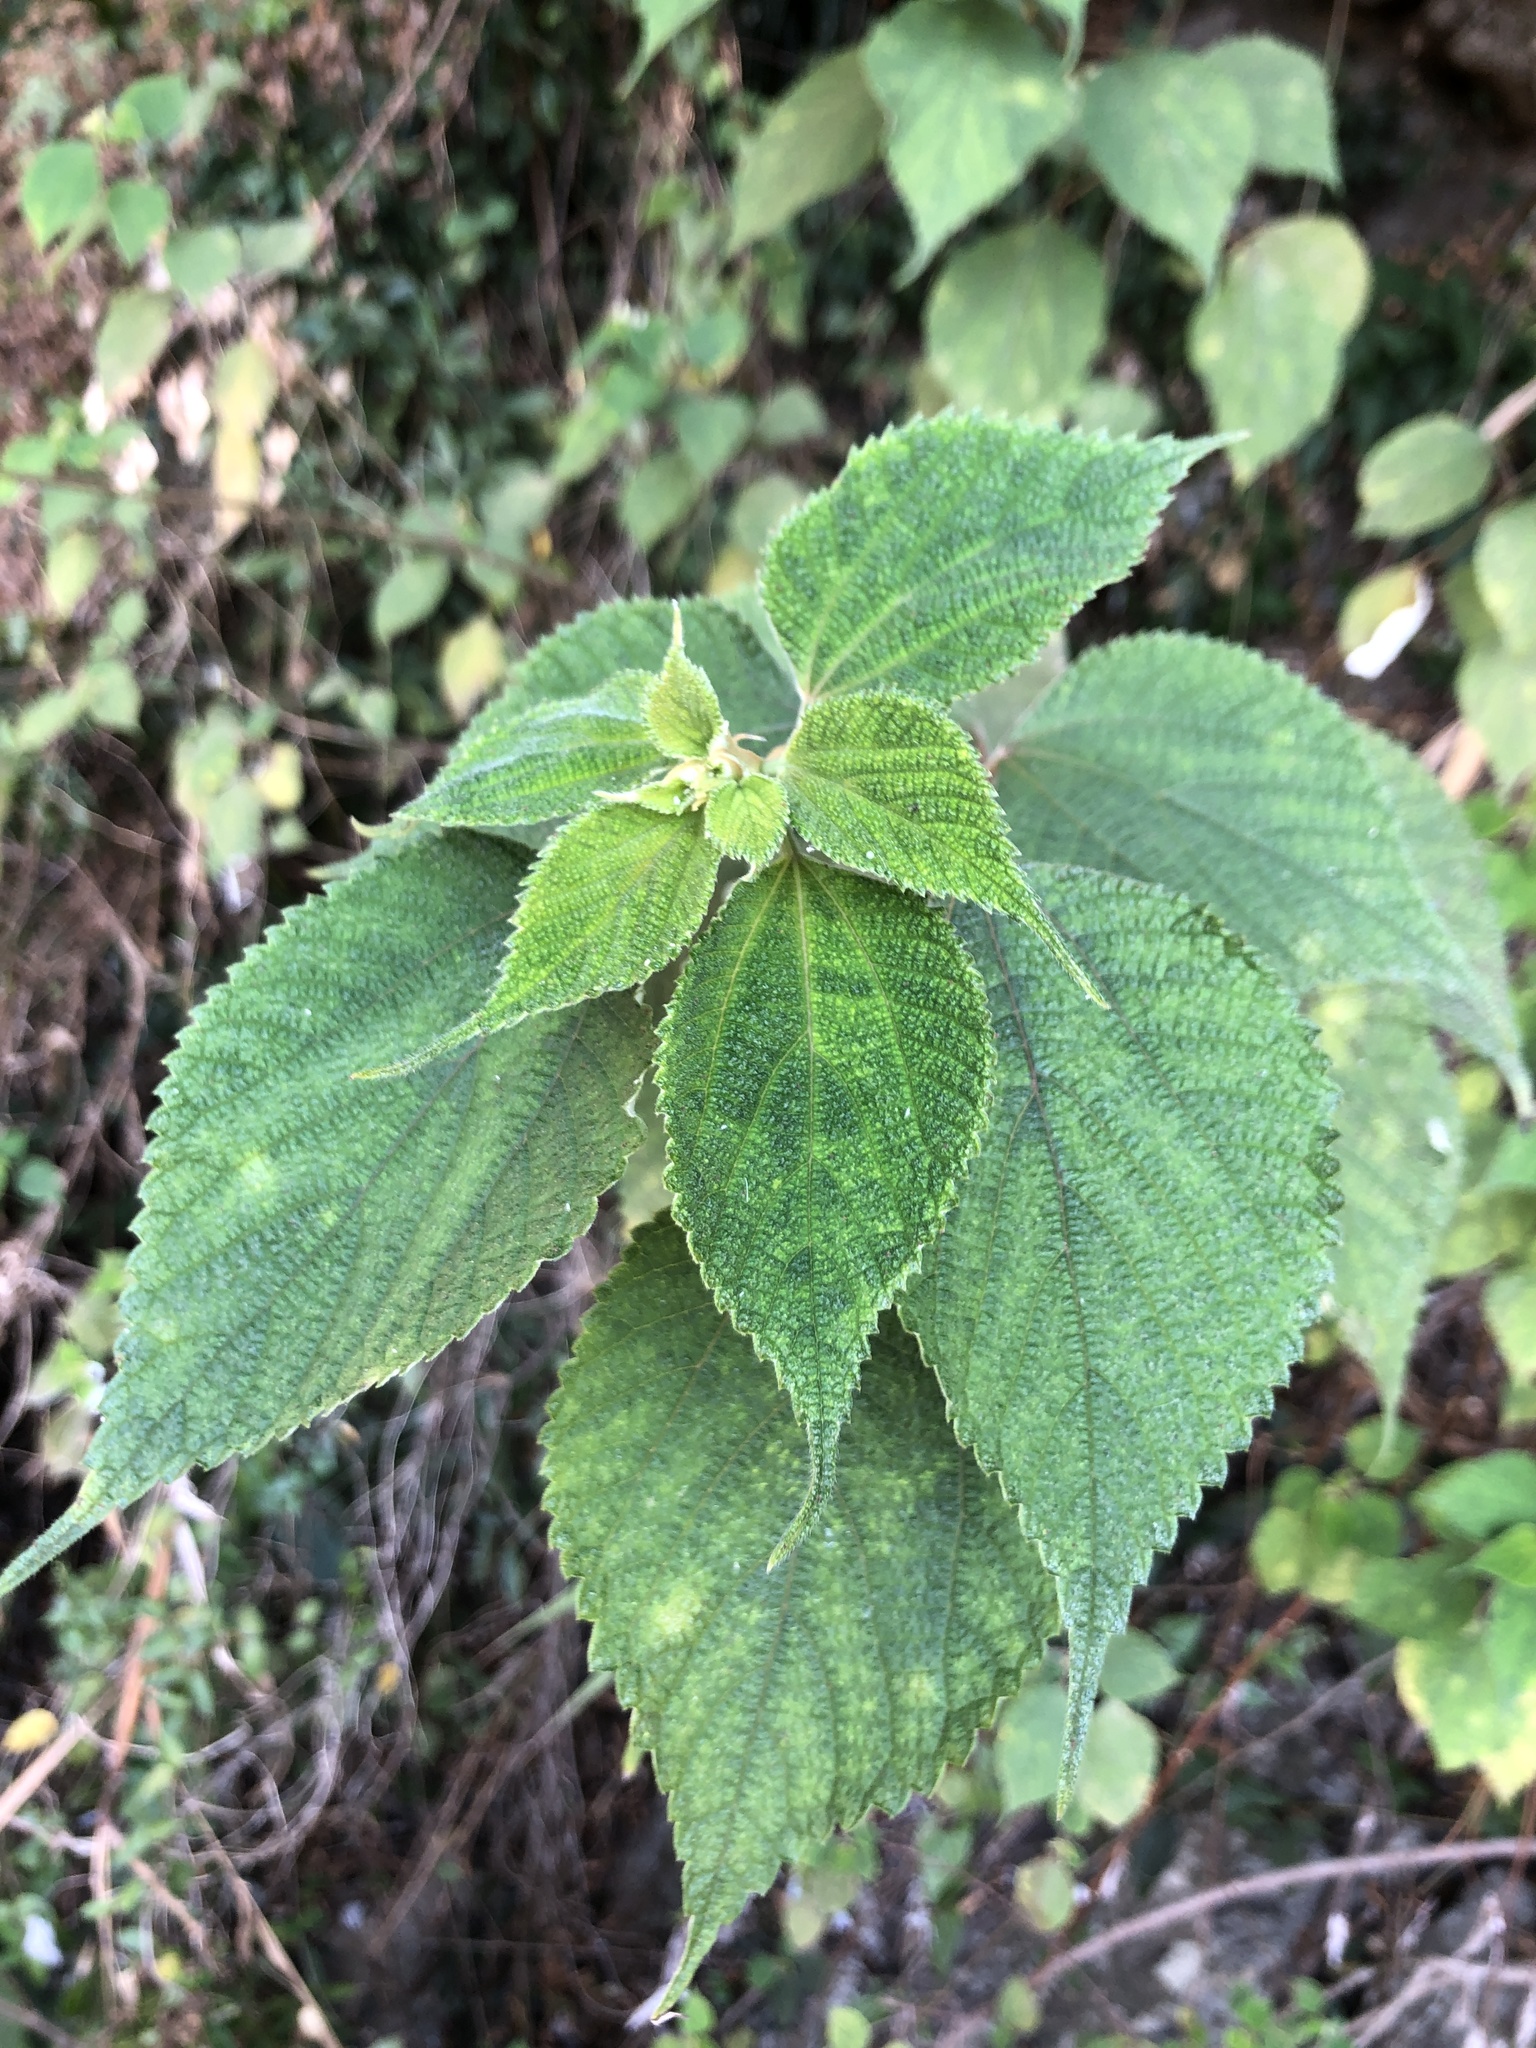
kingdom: Plantae
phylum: Tracheophyta
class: Magnoliopsida
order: Rosales
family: Urticaceae
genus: Boehmeria
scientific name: Boehmeria nivea
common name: Ramie chinese grass
